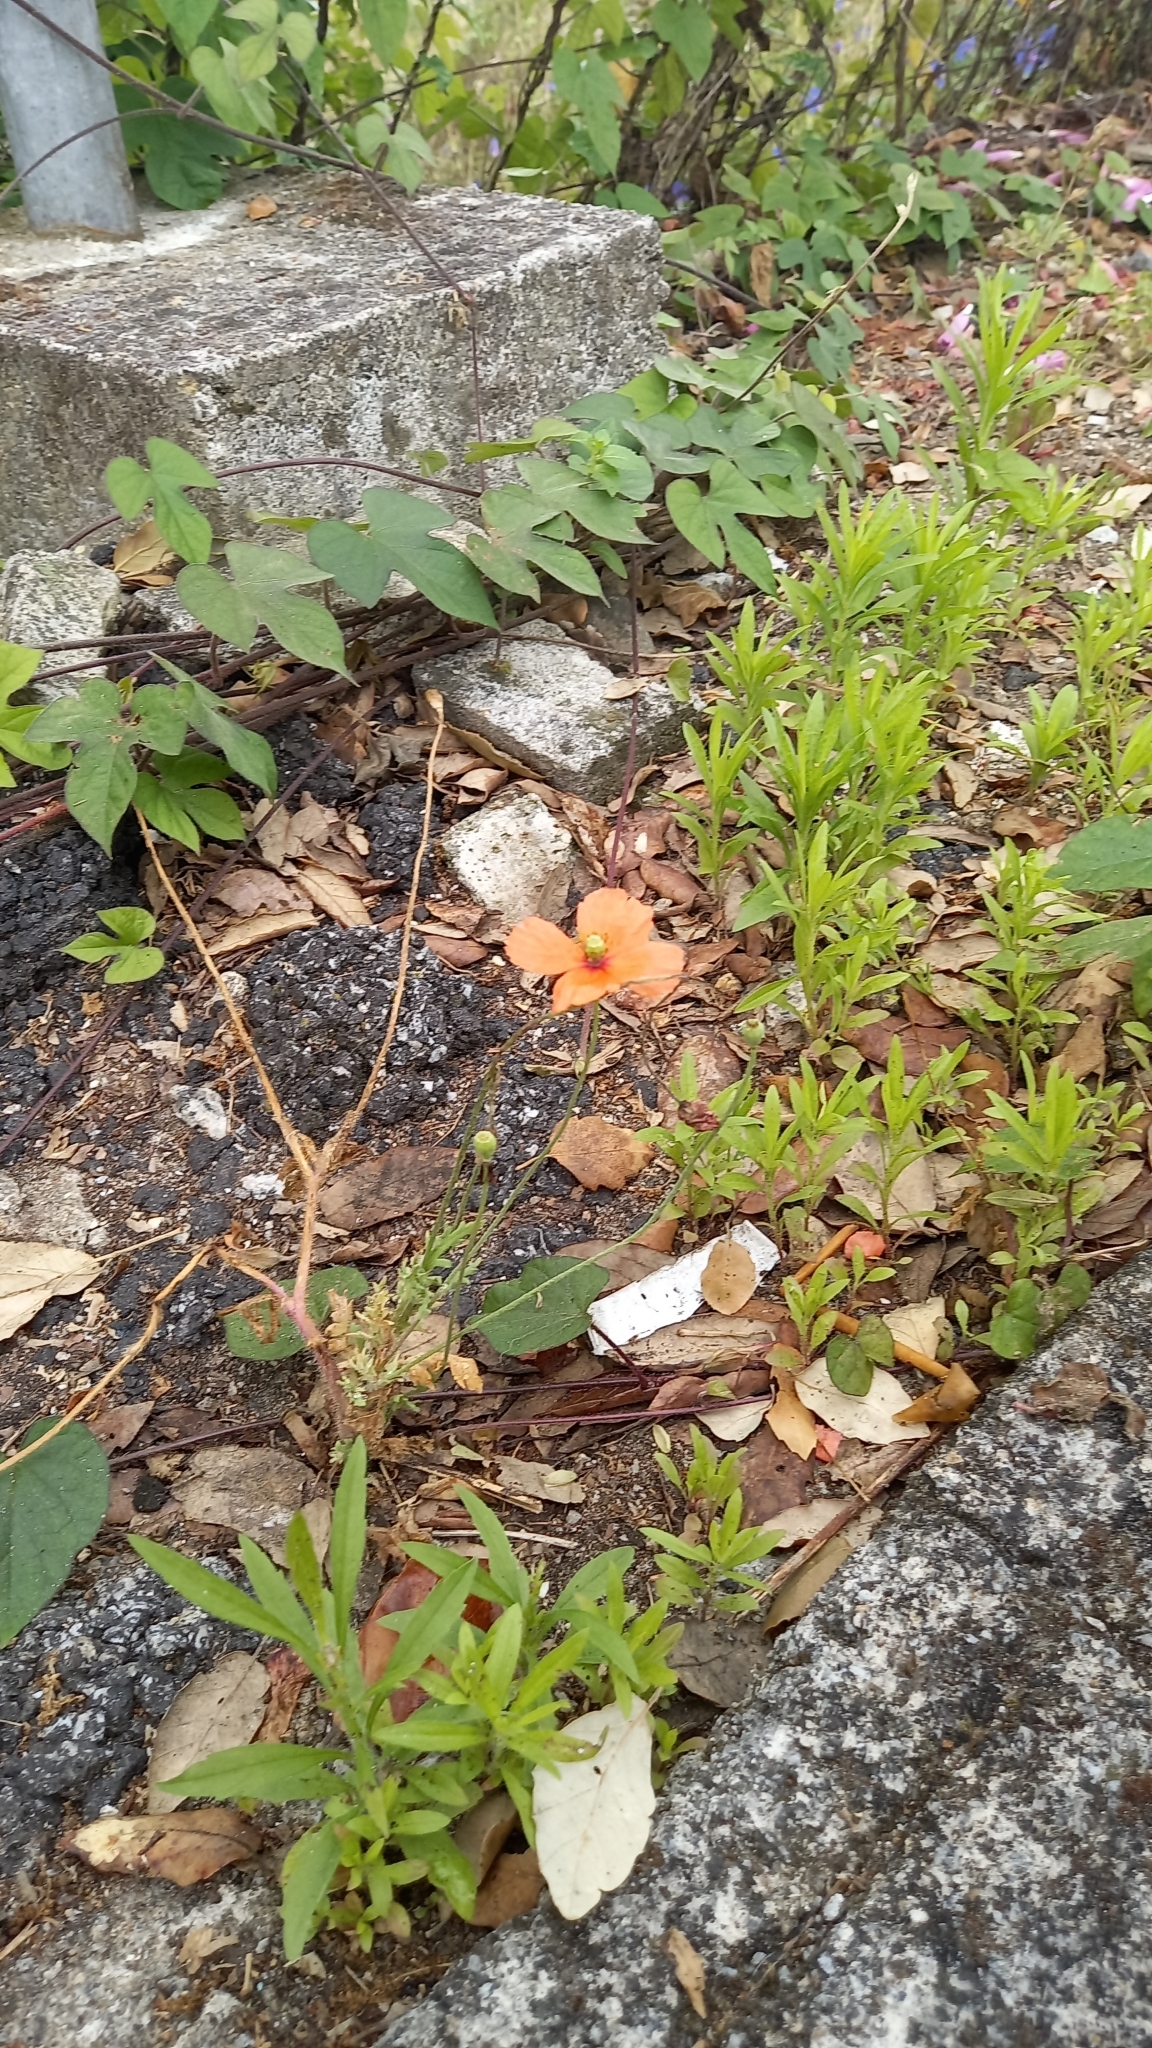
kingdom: Plantae
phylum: Tracheophyta
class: Magnoliopsida
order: Ranunculales
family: Papaveraceae
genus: Papaver
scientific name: Papaver dubium
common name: Long-headed poppy
